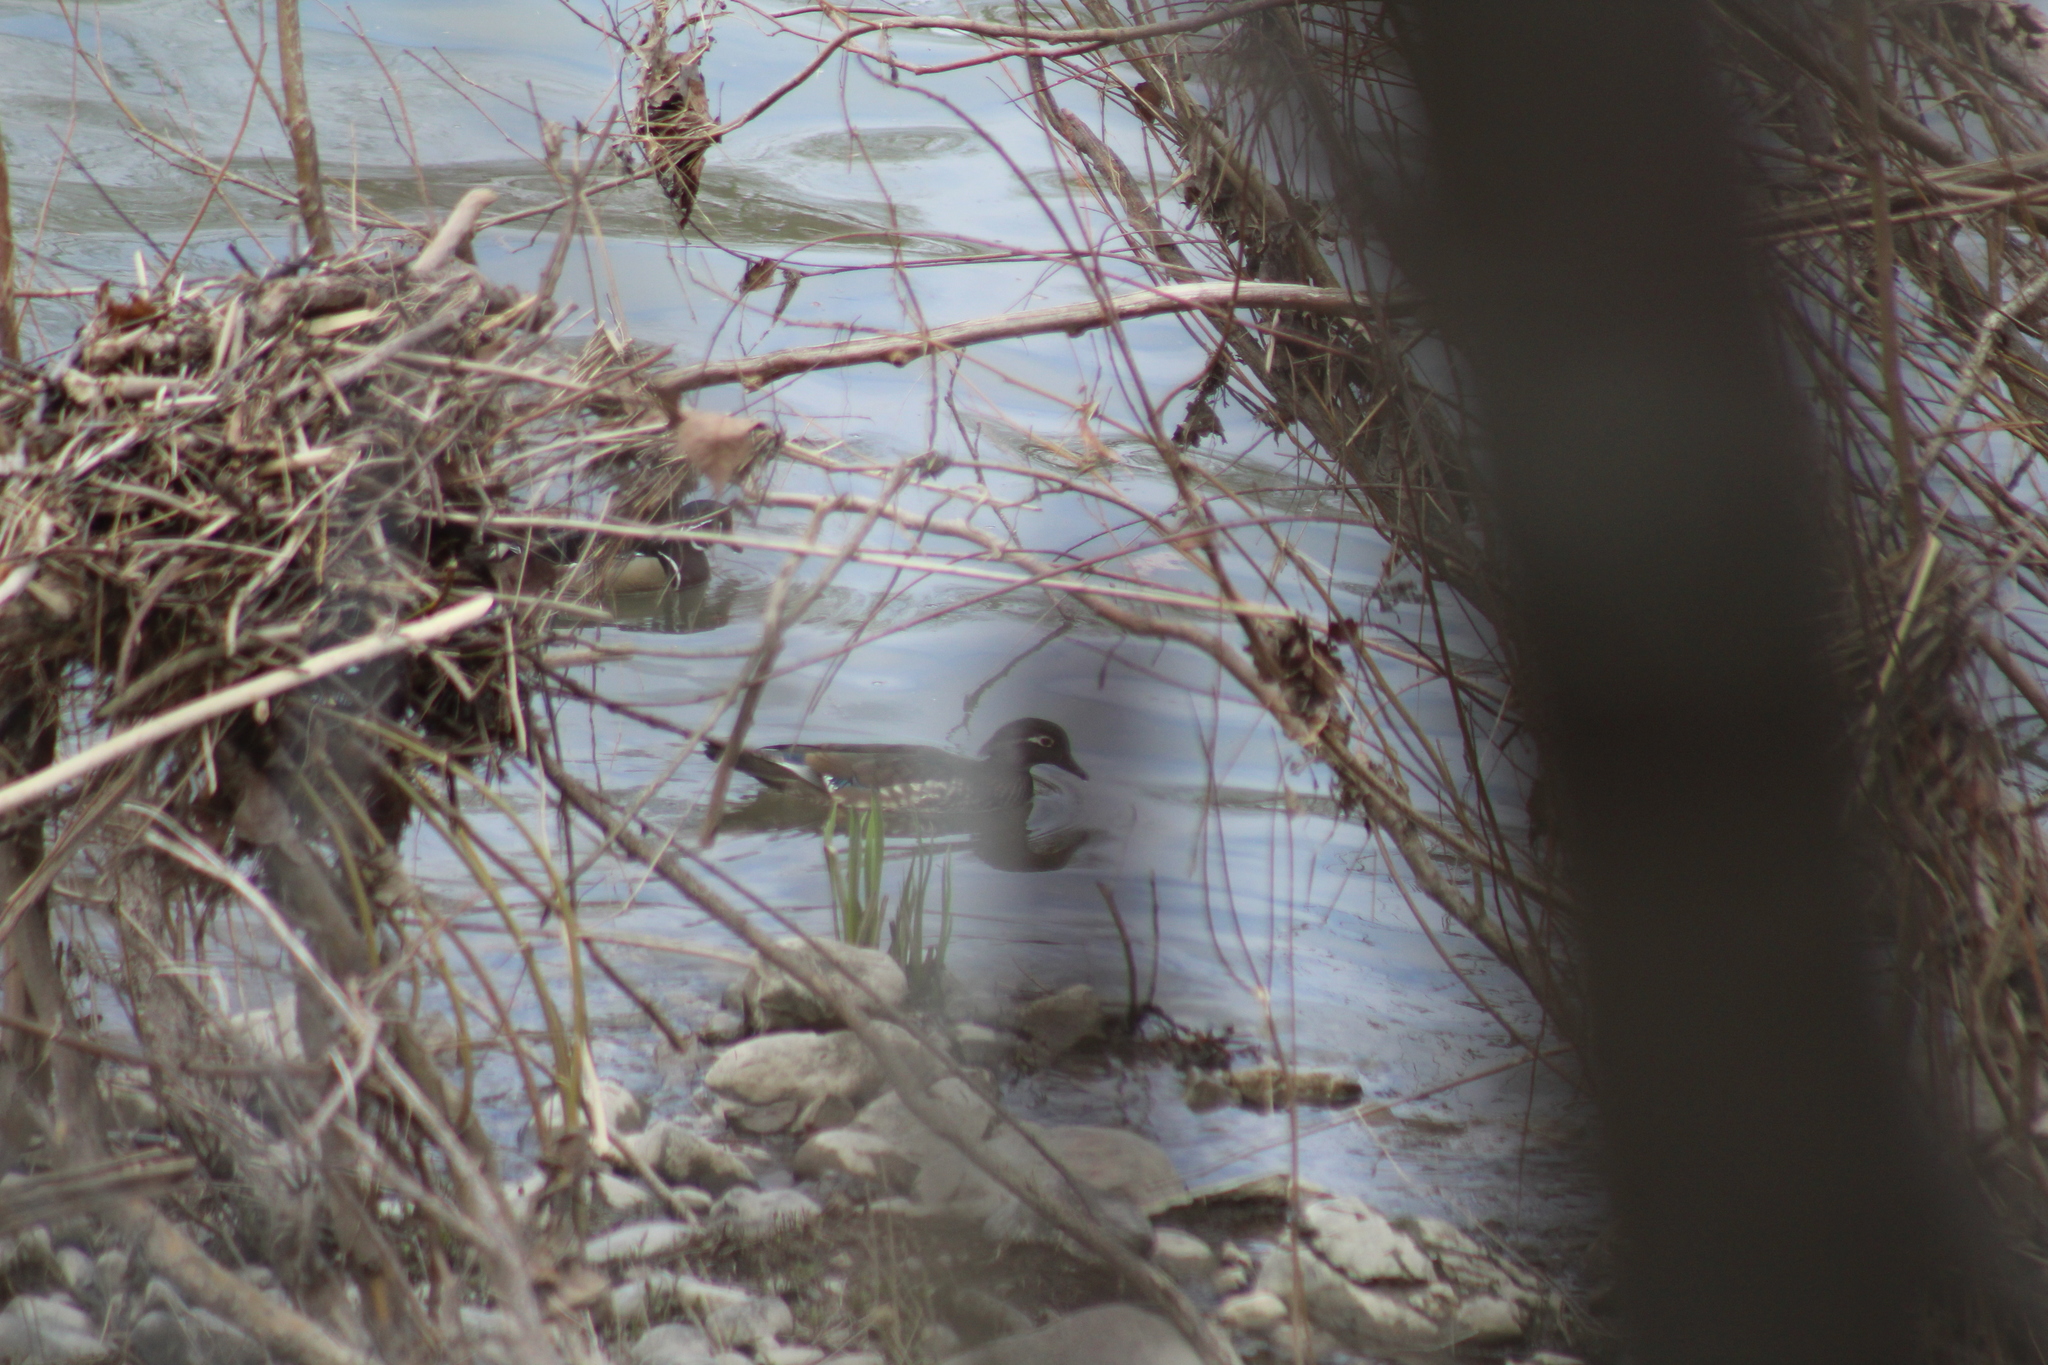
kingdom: Animalia
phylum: Chordata
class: Aves
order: Anseriformes
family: Anatidae
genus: Aix
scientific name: Aix sponsa
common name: Wood duck
